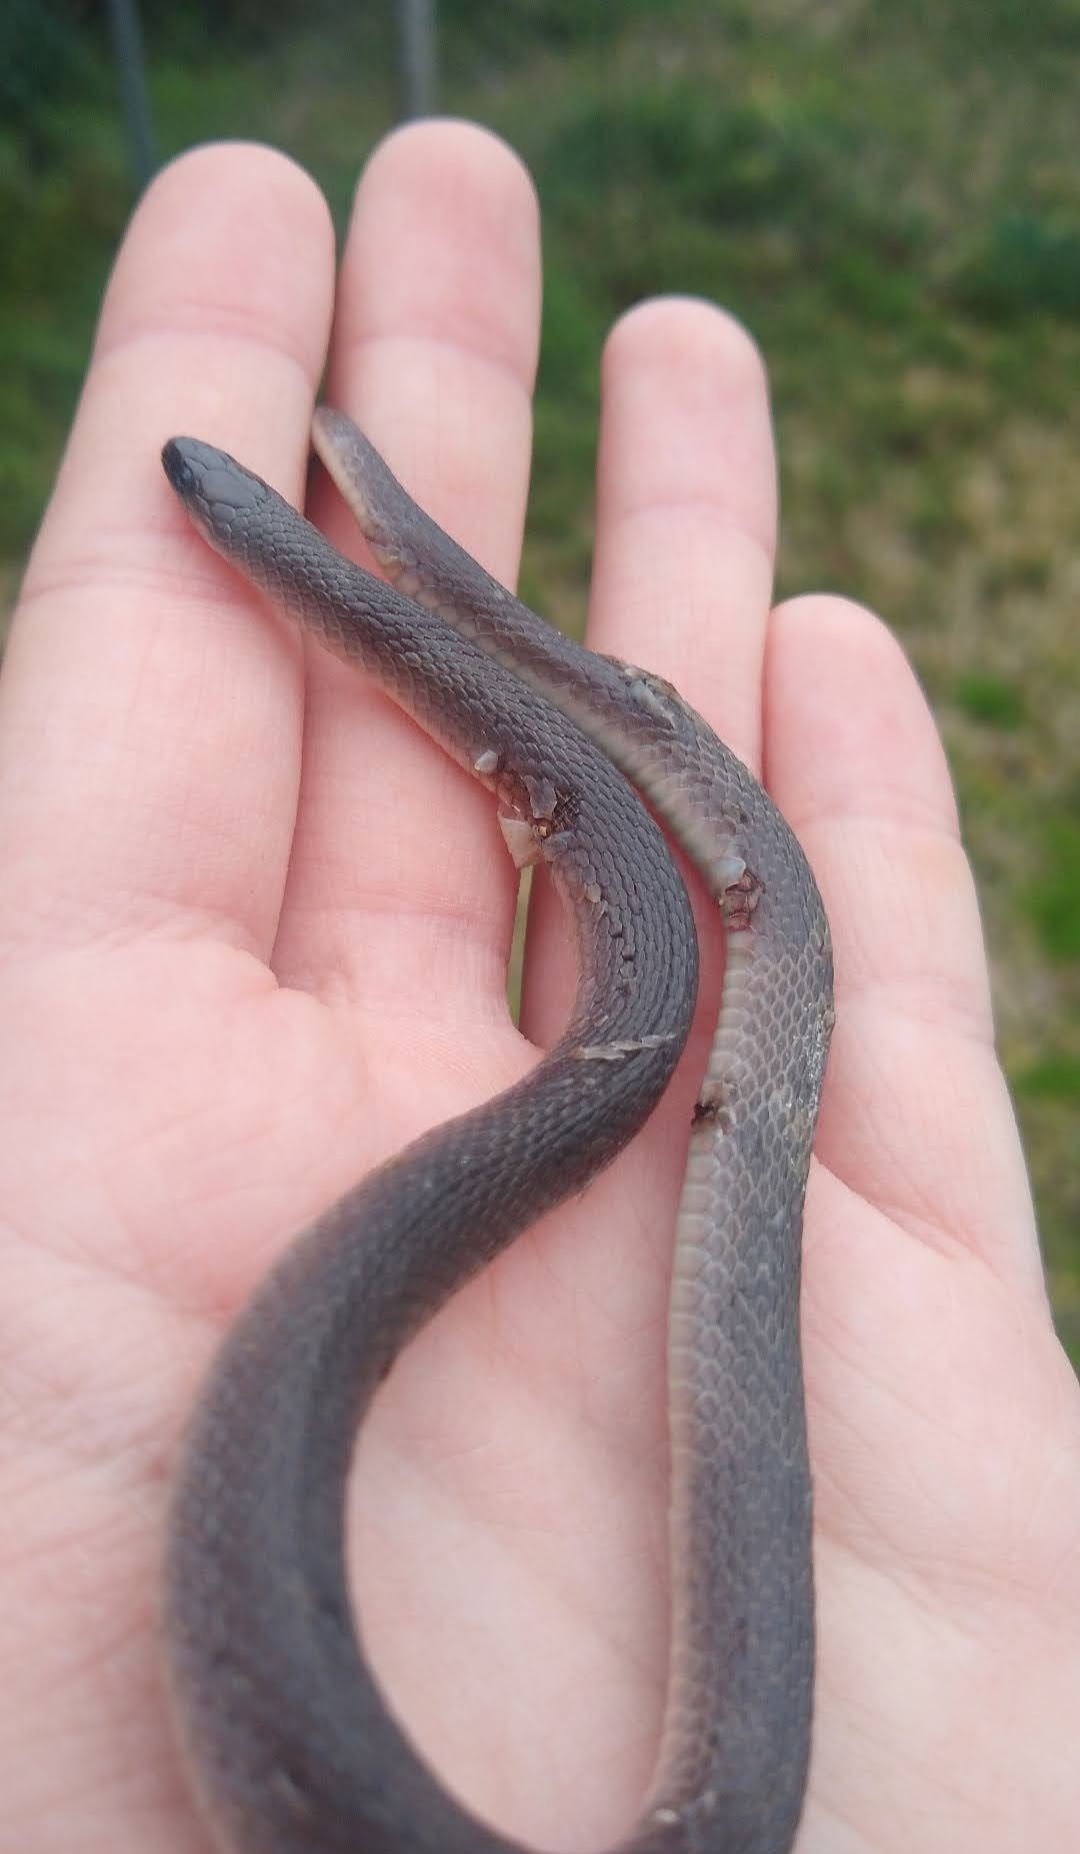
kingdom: Animalia
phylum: Chordata
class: Squamata
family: Colubridae
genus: Haldea
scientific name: Haldea striatula
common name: Rough earth snake
